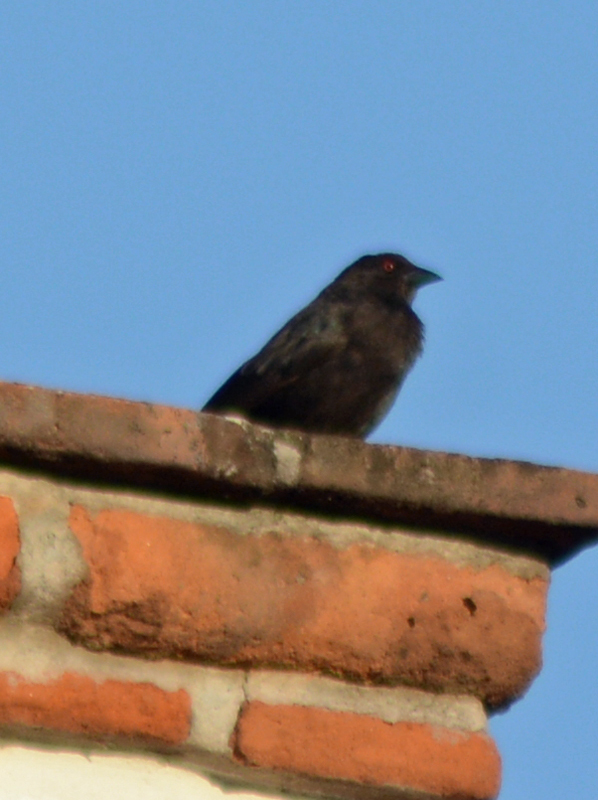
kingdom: Animalia
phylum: Chordata
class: Aves
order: Passeriformes
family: Icteridae
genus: Molothrus
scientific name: Molothrus aeneus
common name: Bronzed cowbird
